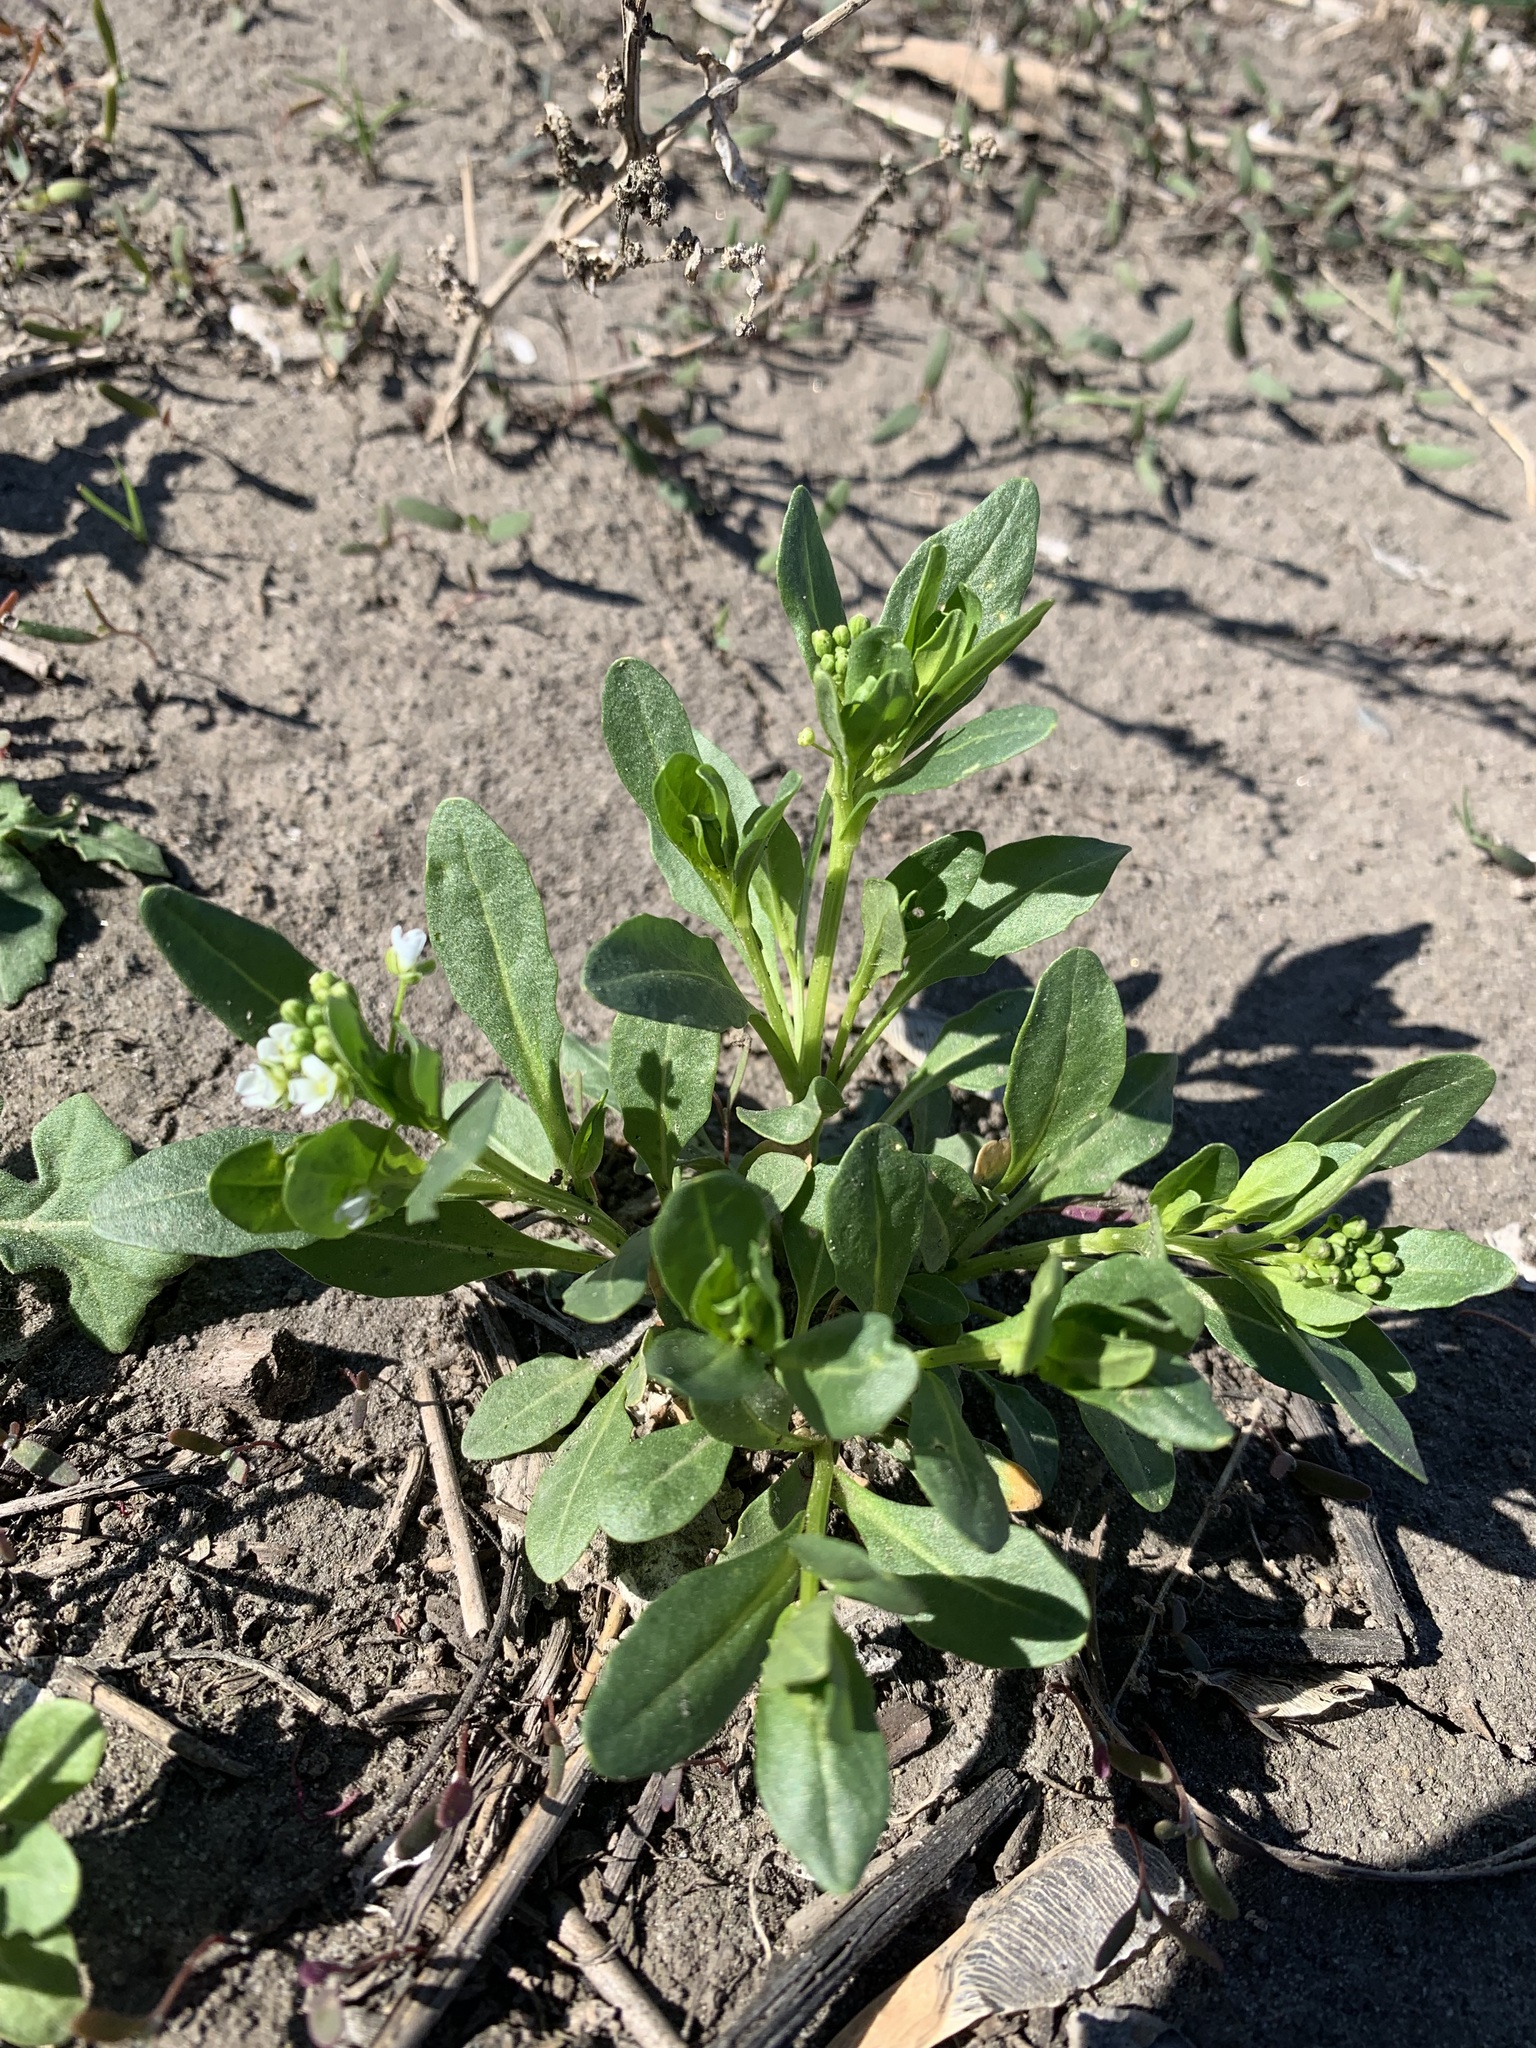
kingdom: Plantae
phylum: Tracheophyta
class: Magnoliopsida
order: Brassicales
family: Brassicaceae
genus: Thlaspi
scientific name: Thlaspi arvense
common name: Field pennycress
